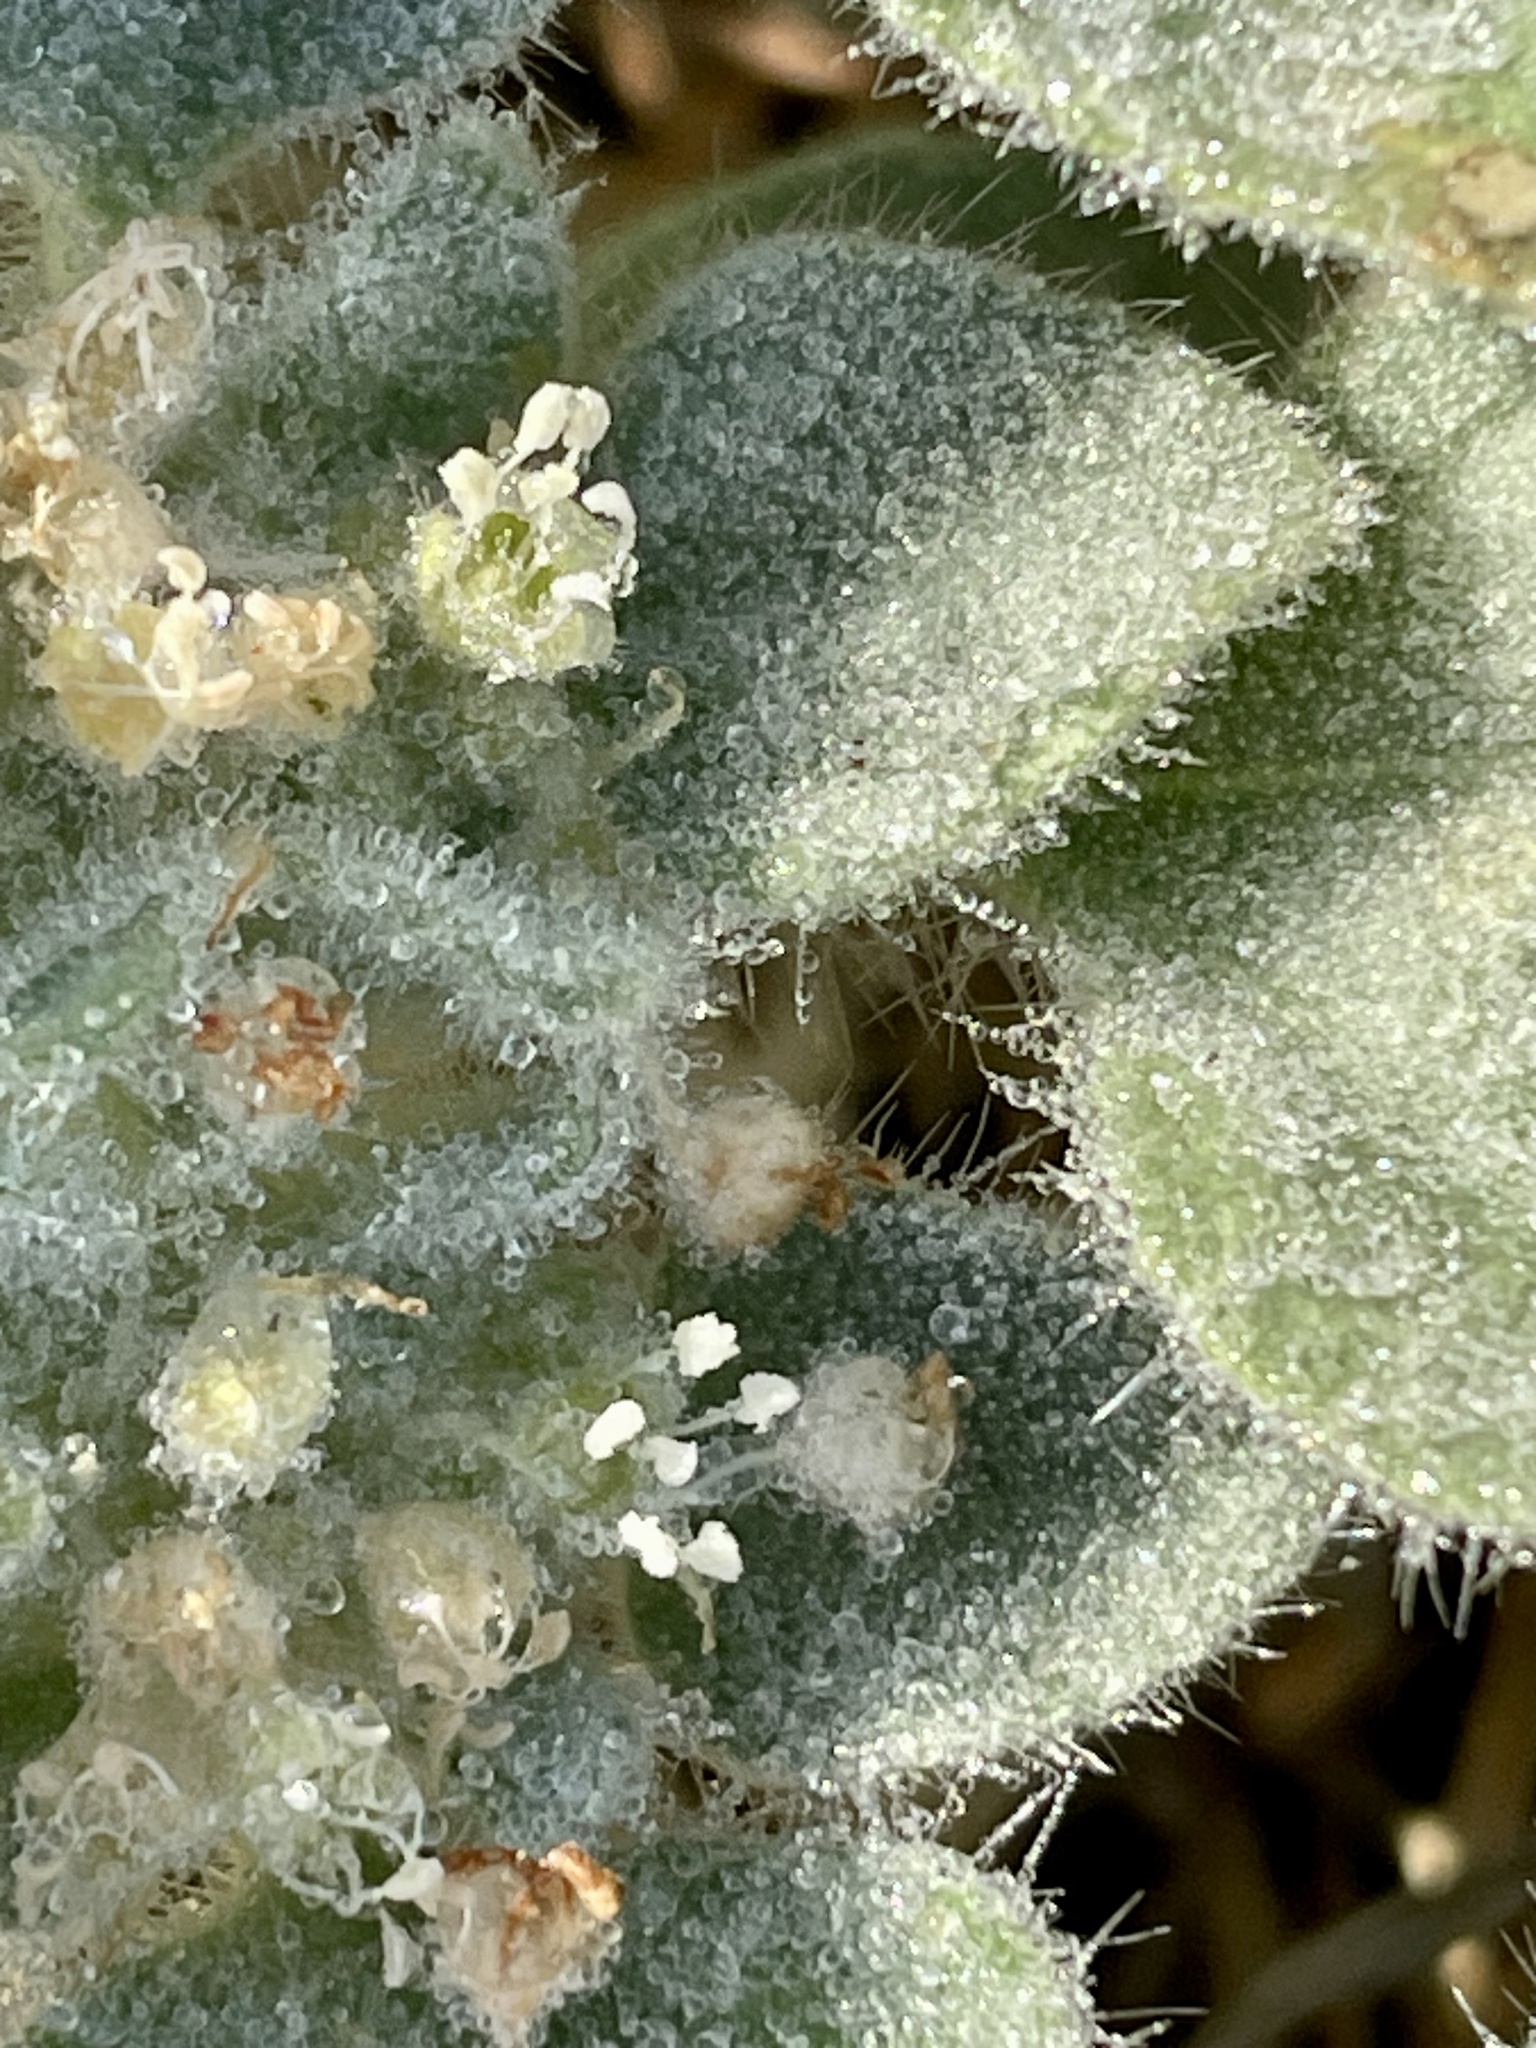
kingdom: Plantae
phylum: Tracheophyta
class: Magnoliopsida
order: Malpighiales
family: Euphorbiaceae
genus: Croton
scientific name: Croton setiger
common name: Dove weed
